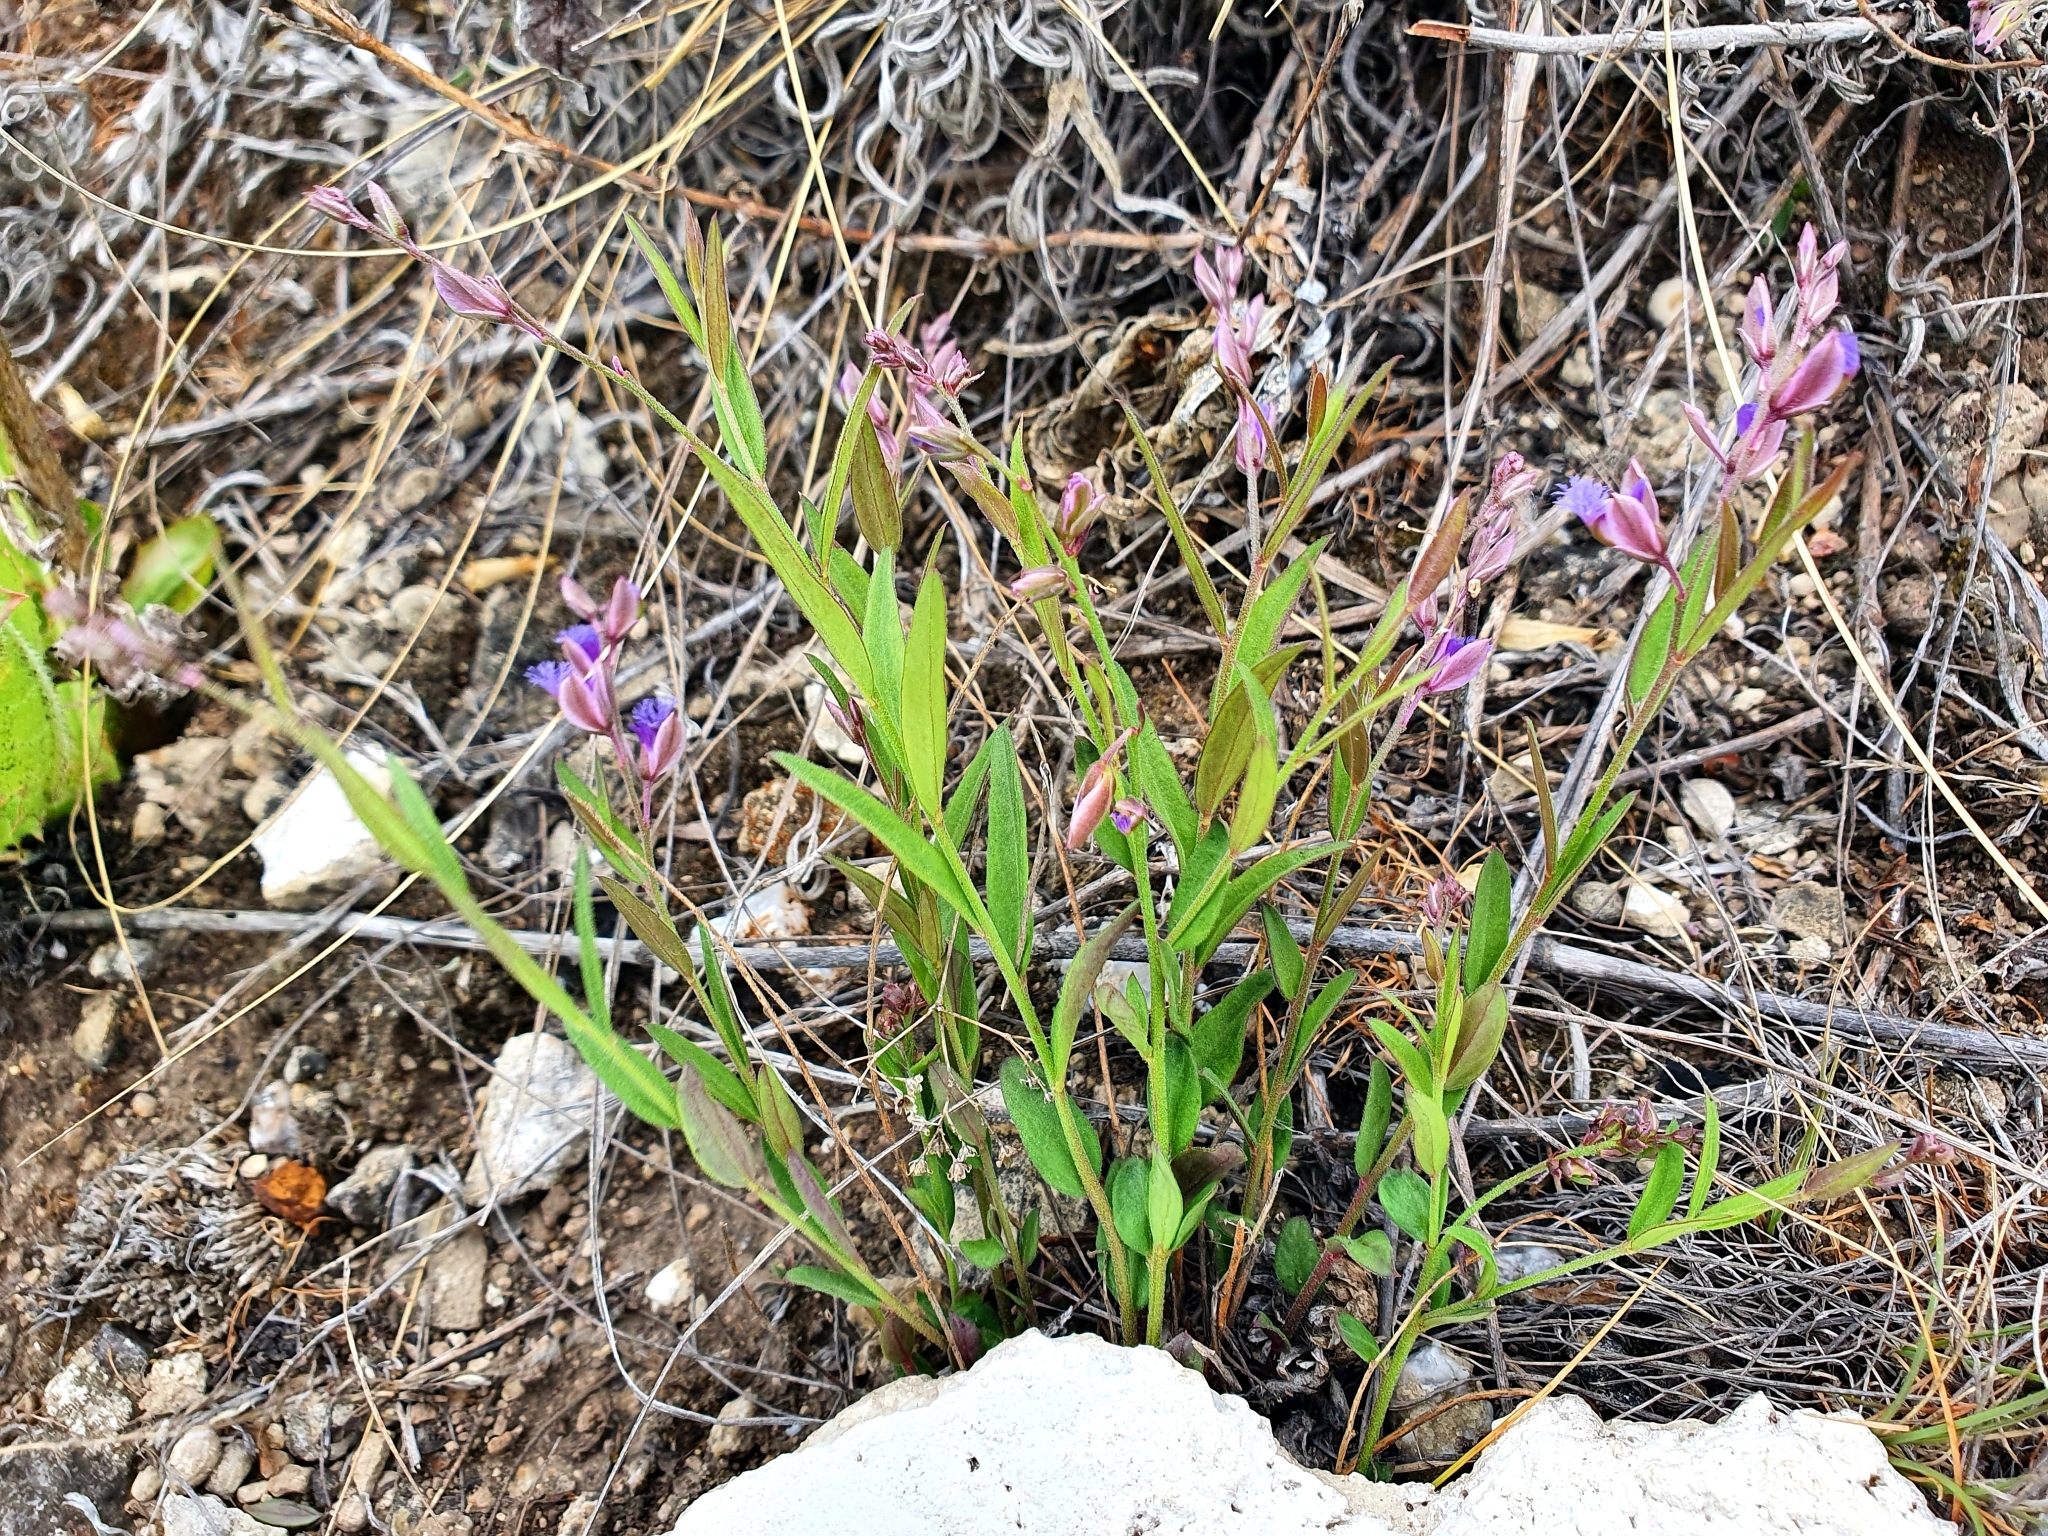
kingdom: Plantae
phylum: Tracheophyta
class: Magnoliopsida
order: Fabales
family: Polygalaceae
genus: Polygala
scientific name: Polygala sibirica
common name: Siberian polygala
